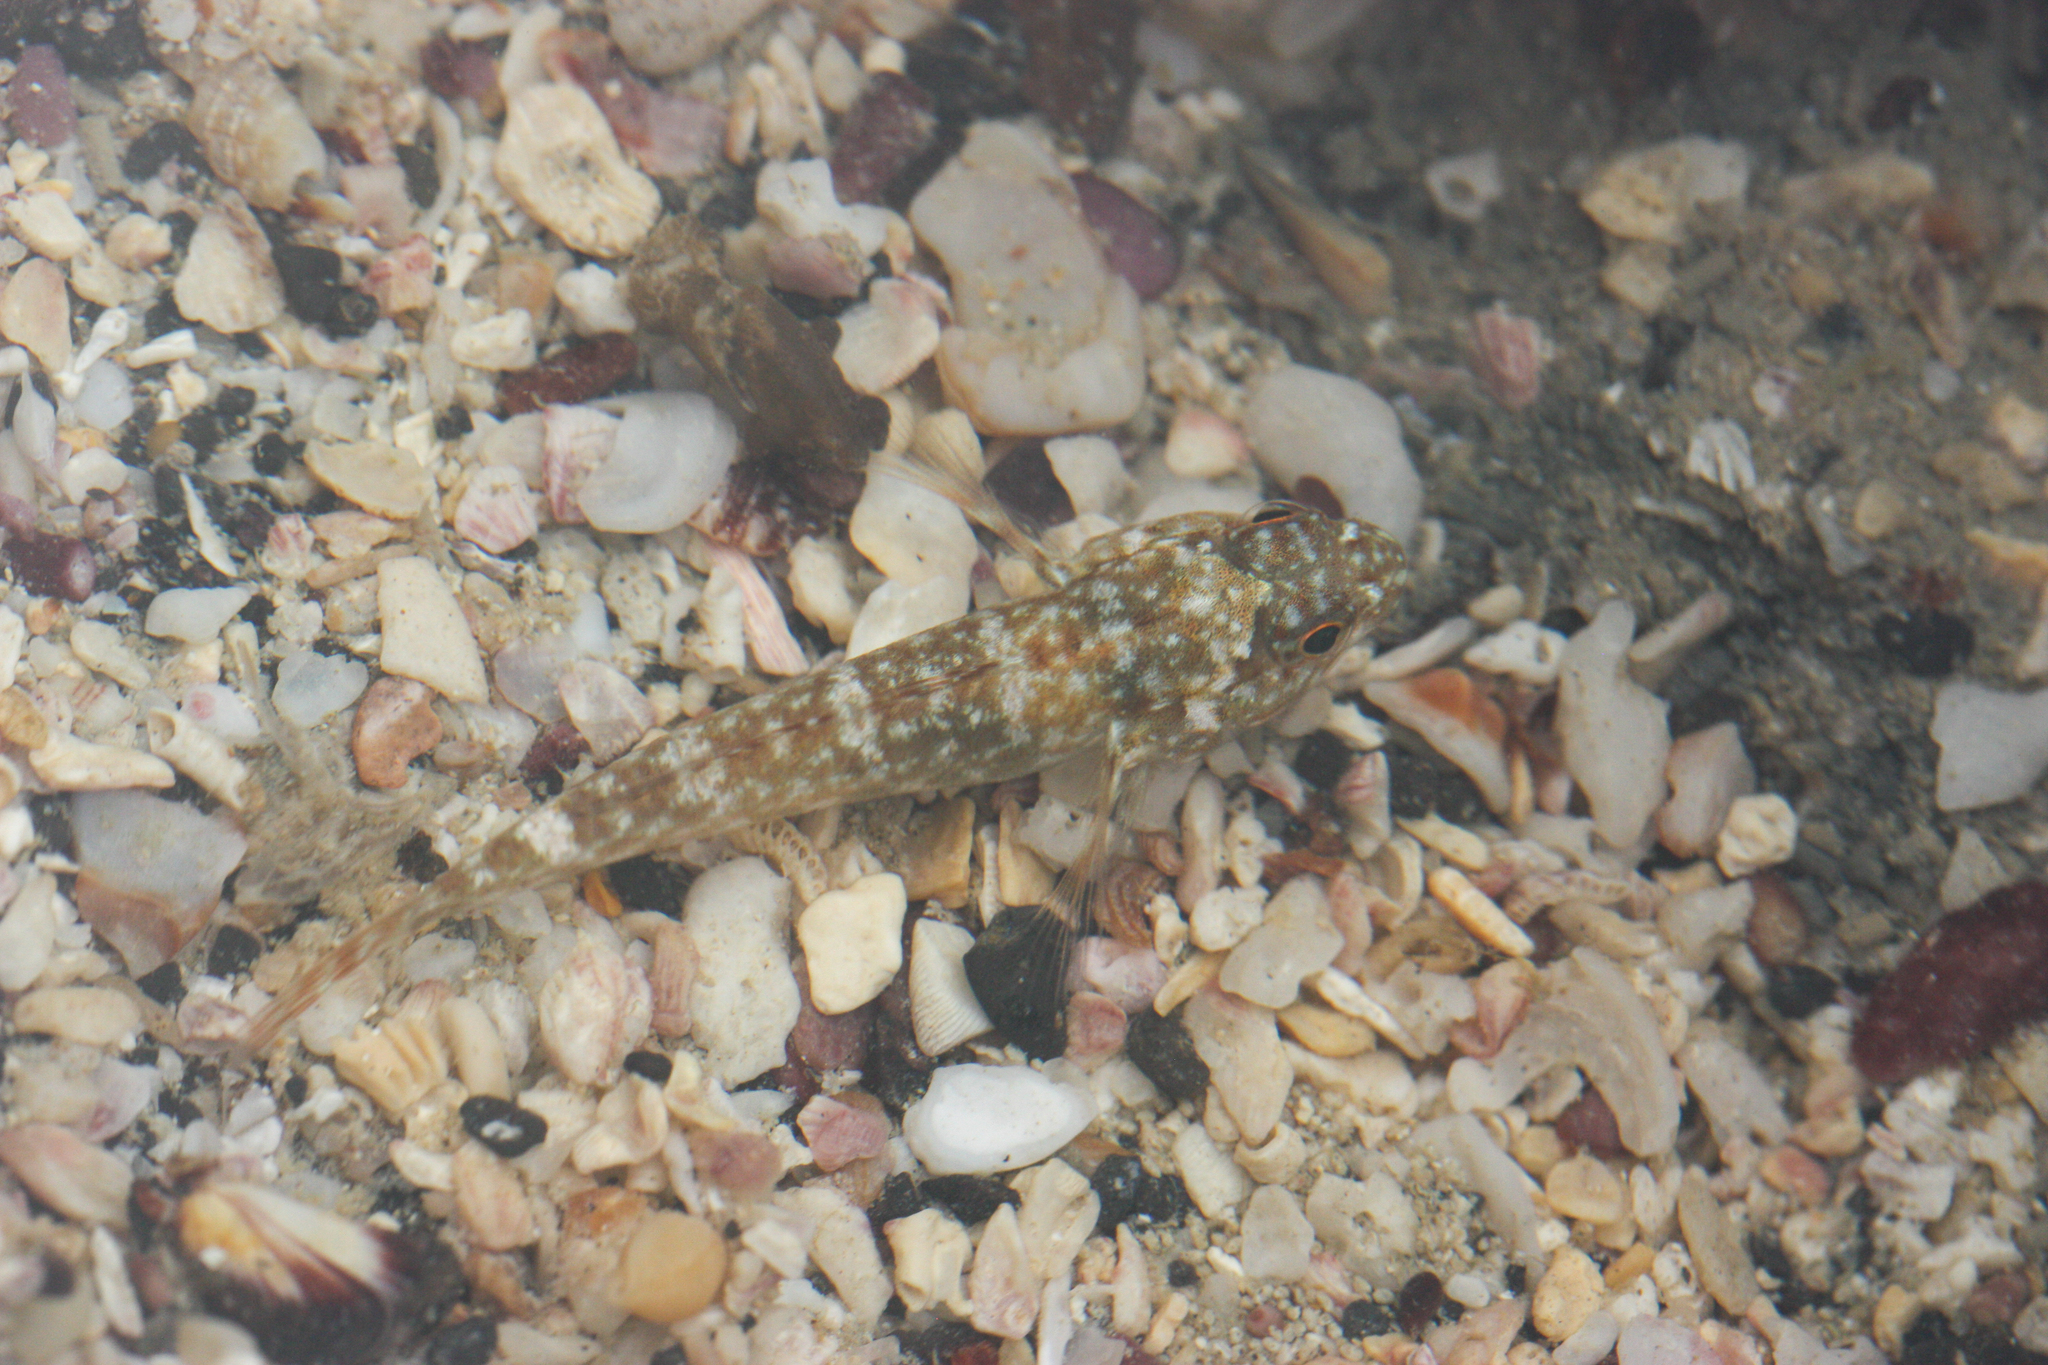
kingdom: Animalia
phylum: Chordata
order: Perciformes
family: Gobiidae
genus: Bathygobius
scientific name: Bathygobius lineatus
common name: Southern frillfin
